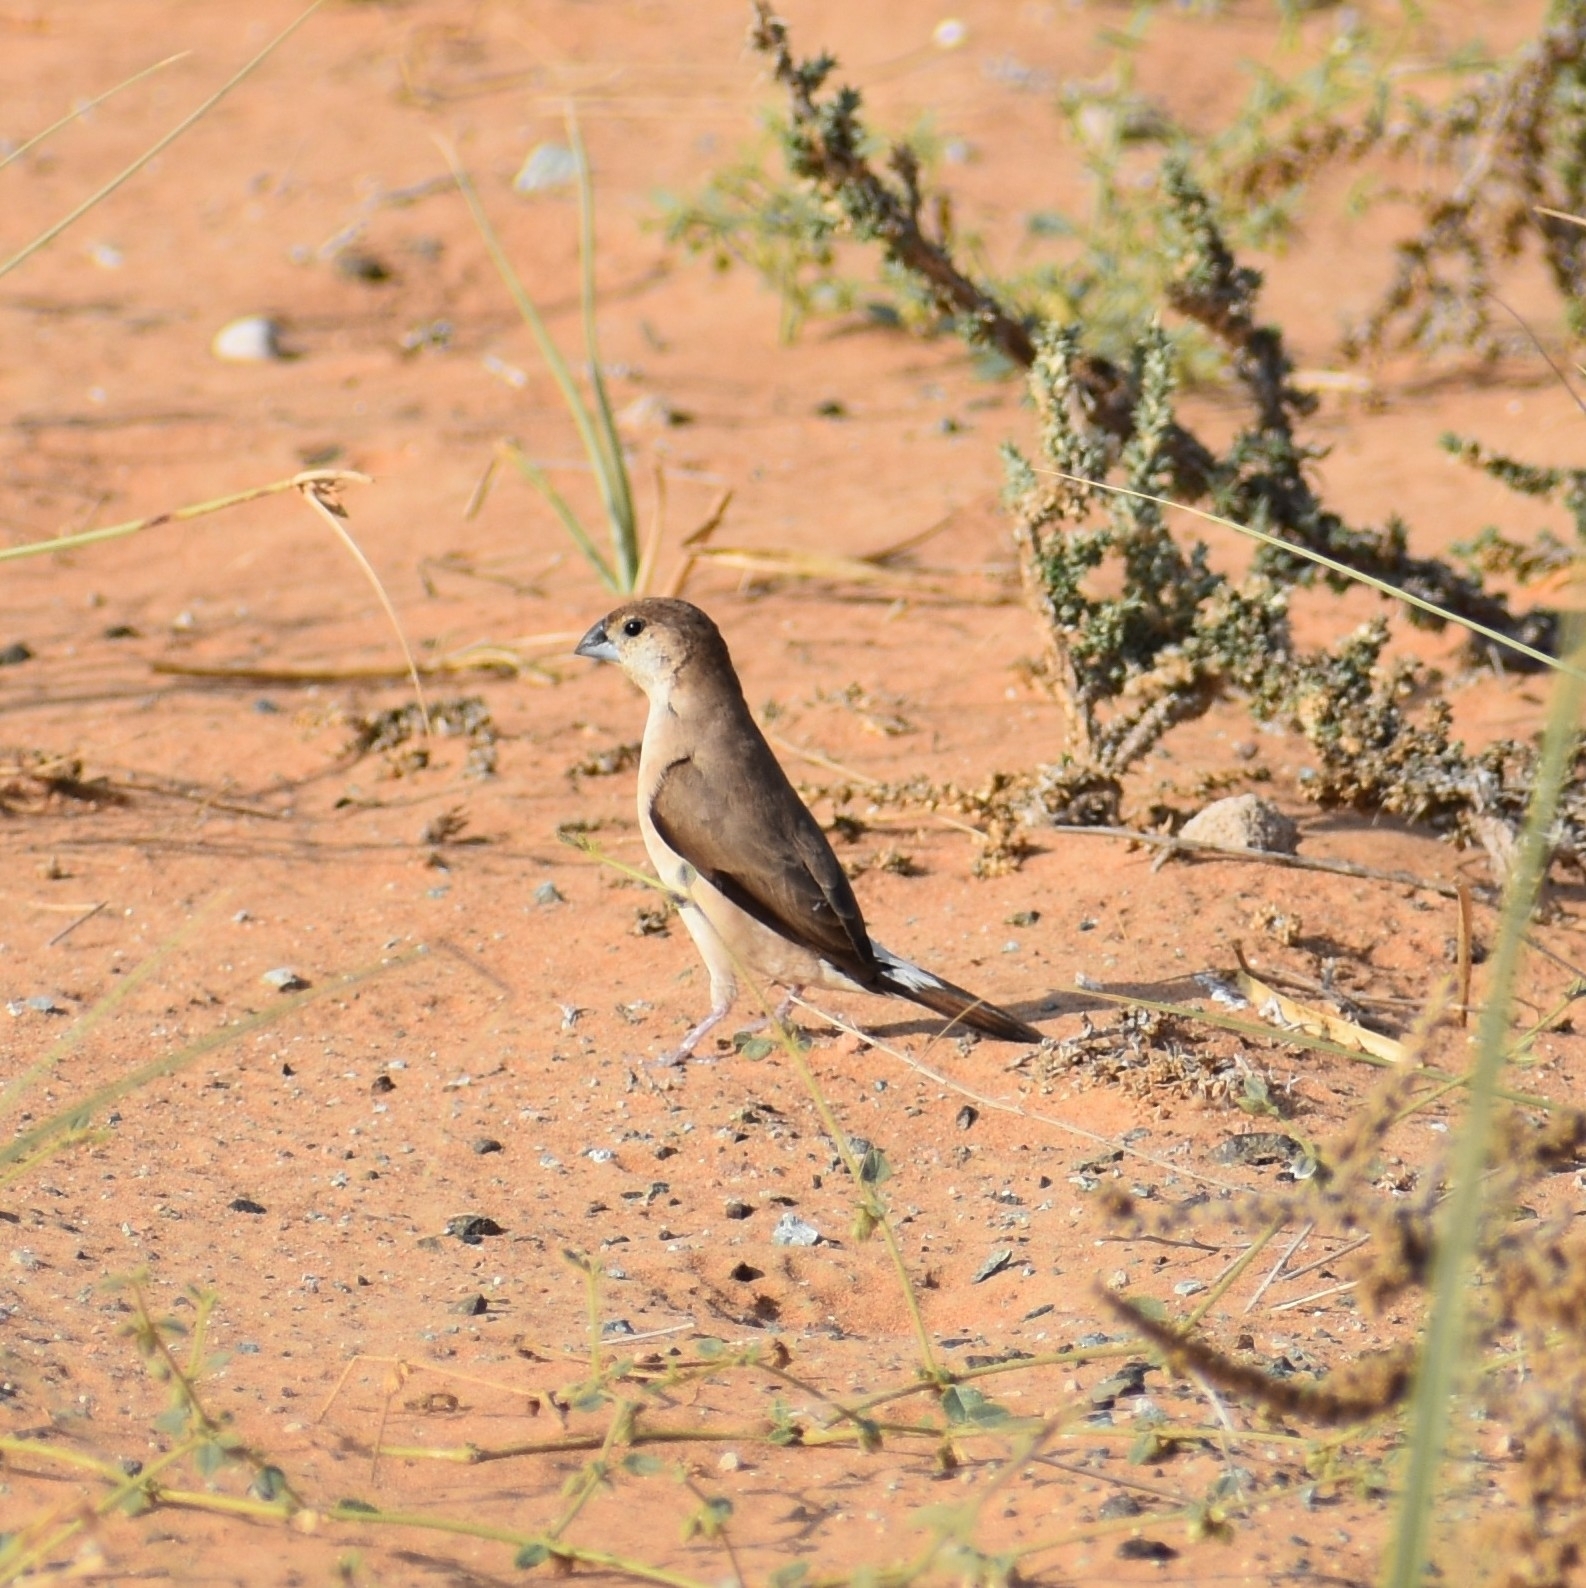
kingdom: Animalia
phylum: Chordata
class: Aves
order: Passeriformes
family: Estrildidae
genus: Euodice
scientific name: Euodice malabarica
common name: Indian silverbill
